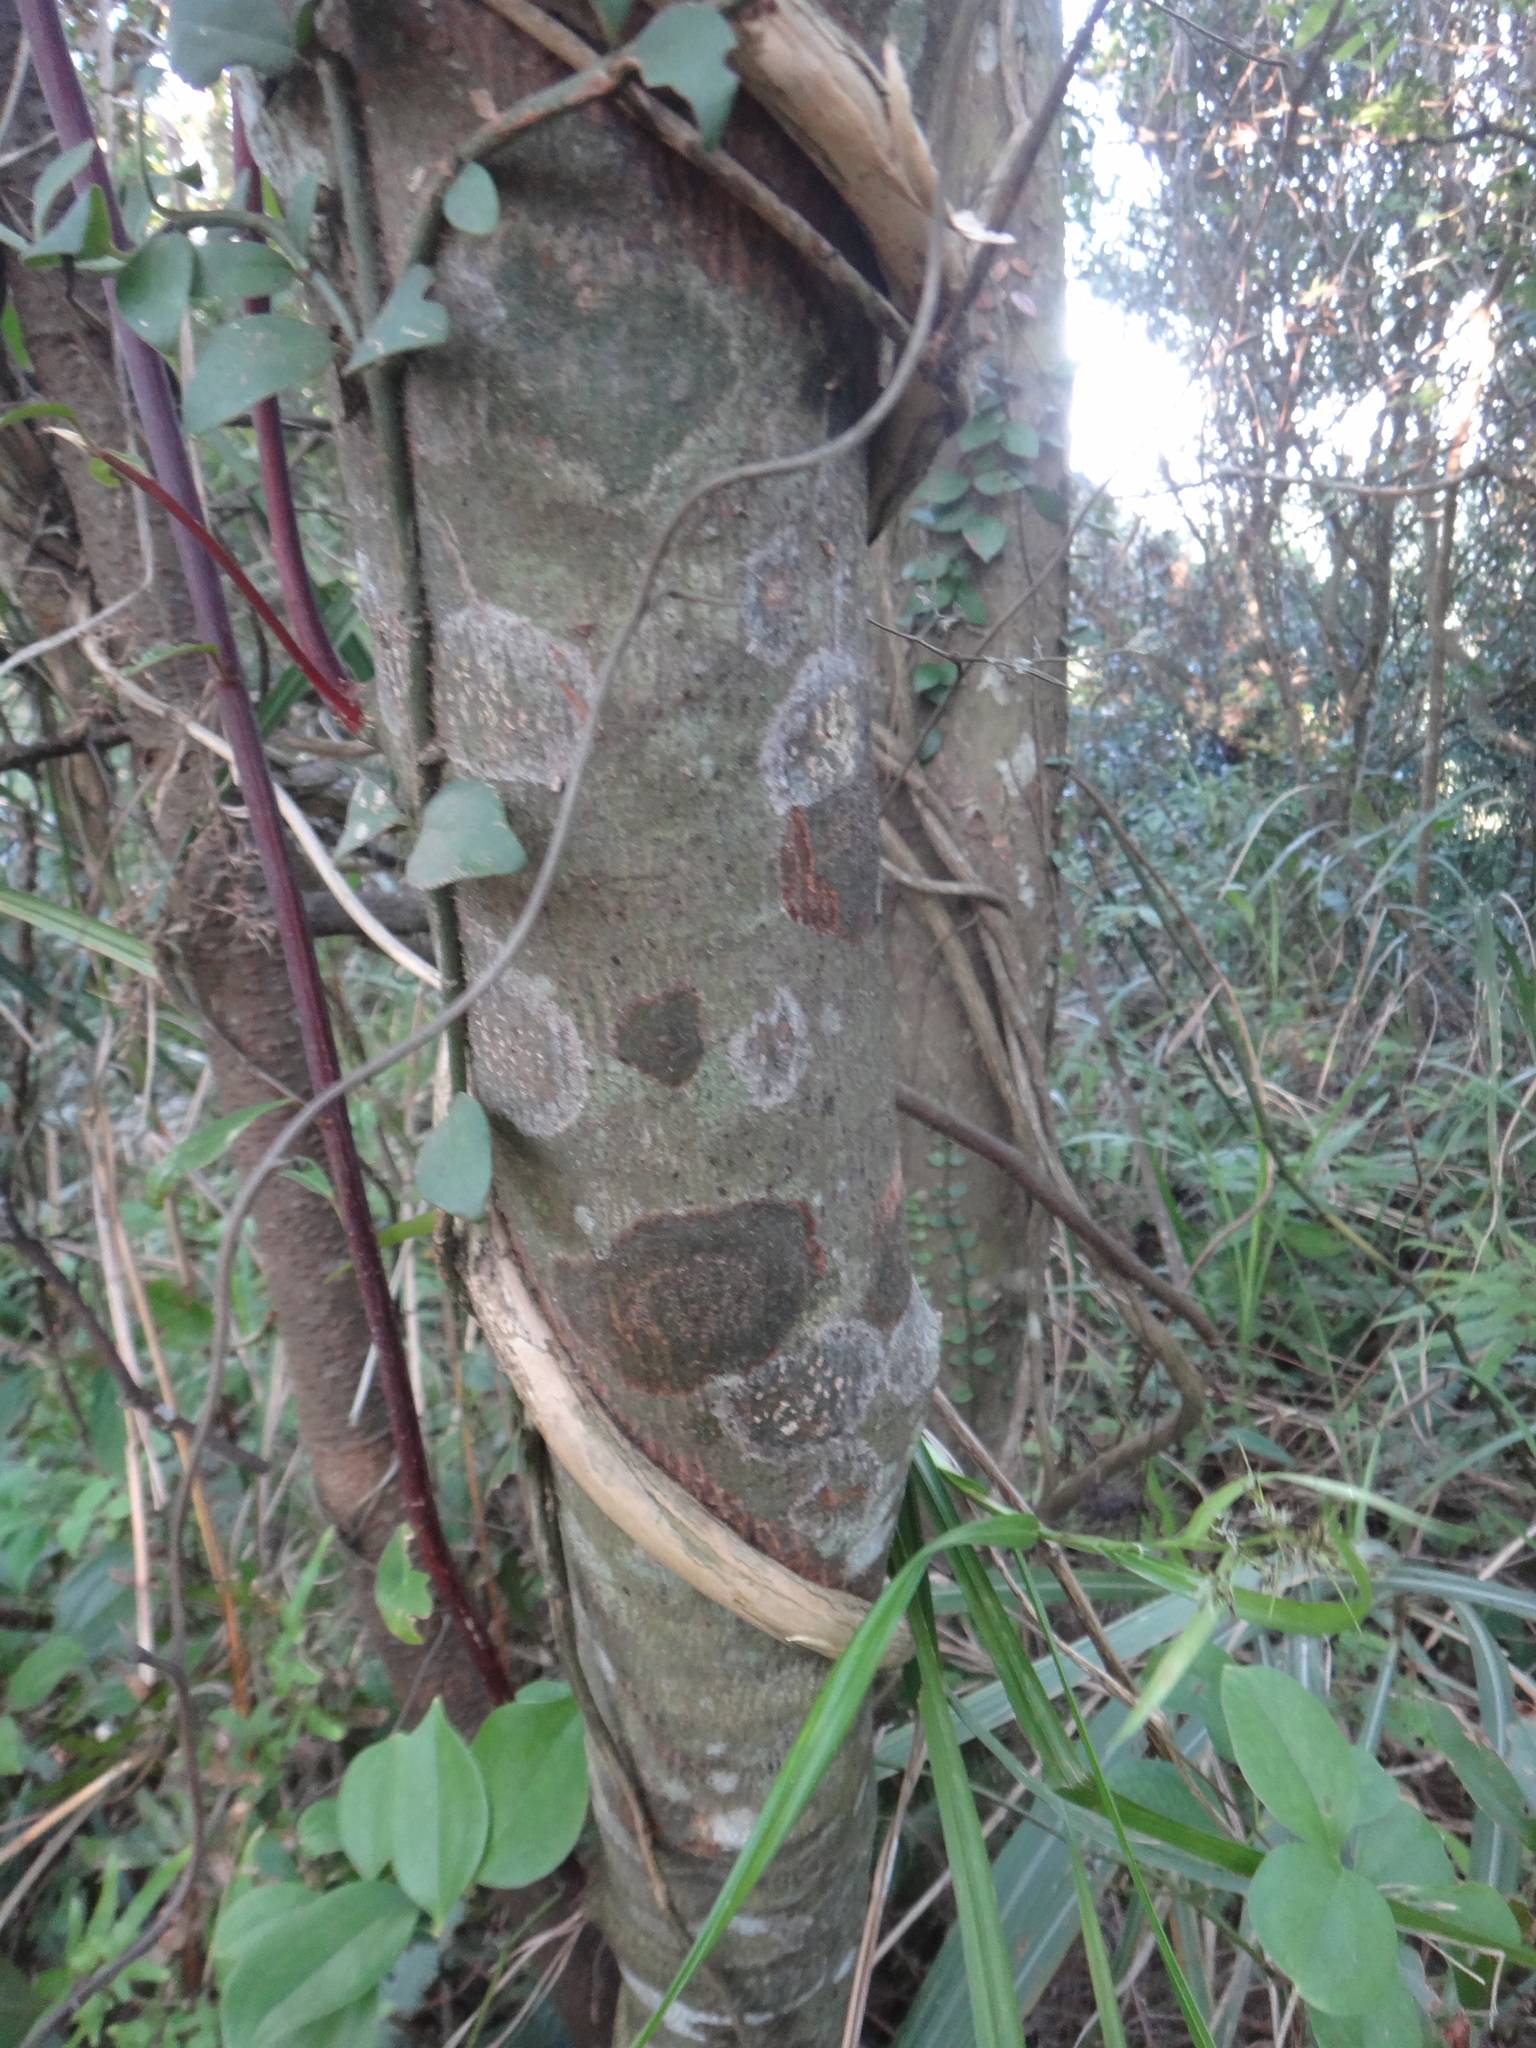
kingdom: Plantae
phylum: Tracheophyta
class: Magnoliopsida
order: Oxalidales
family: Elaeocarpaceae
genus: Elaeocarpus
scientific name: Elaeocarpus japonicus
